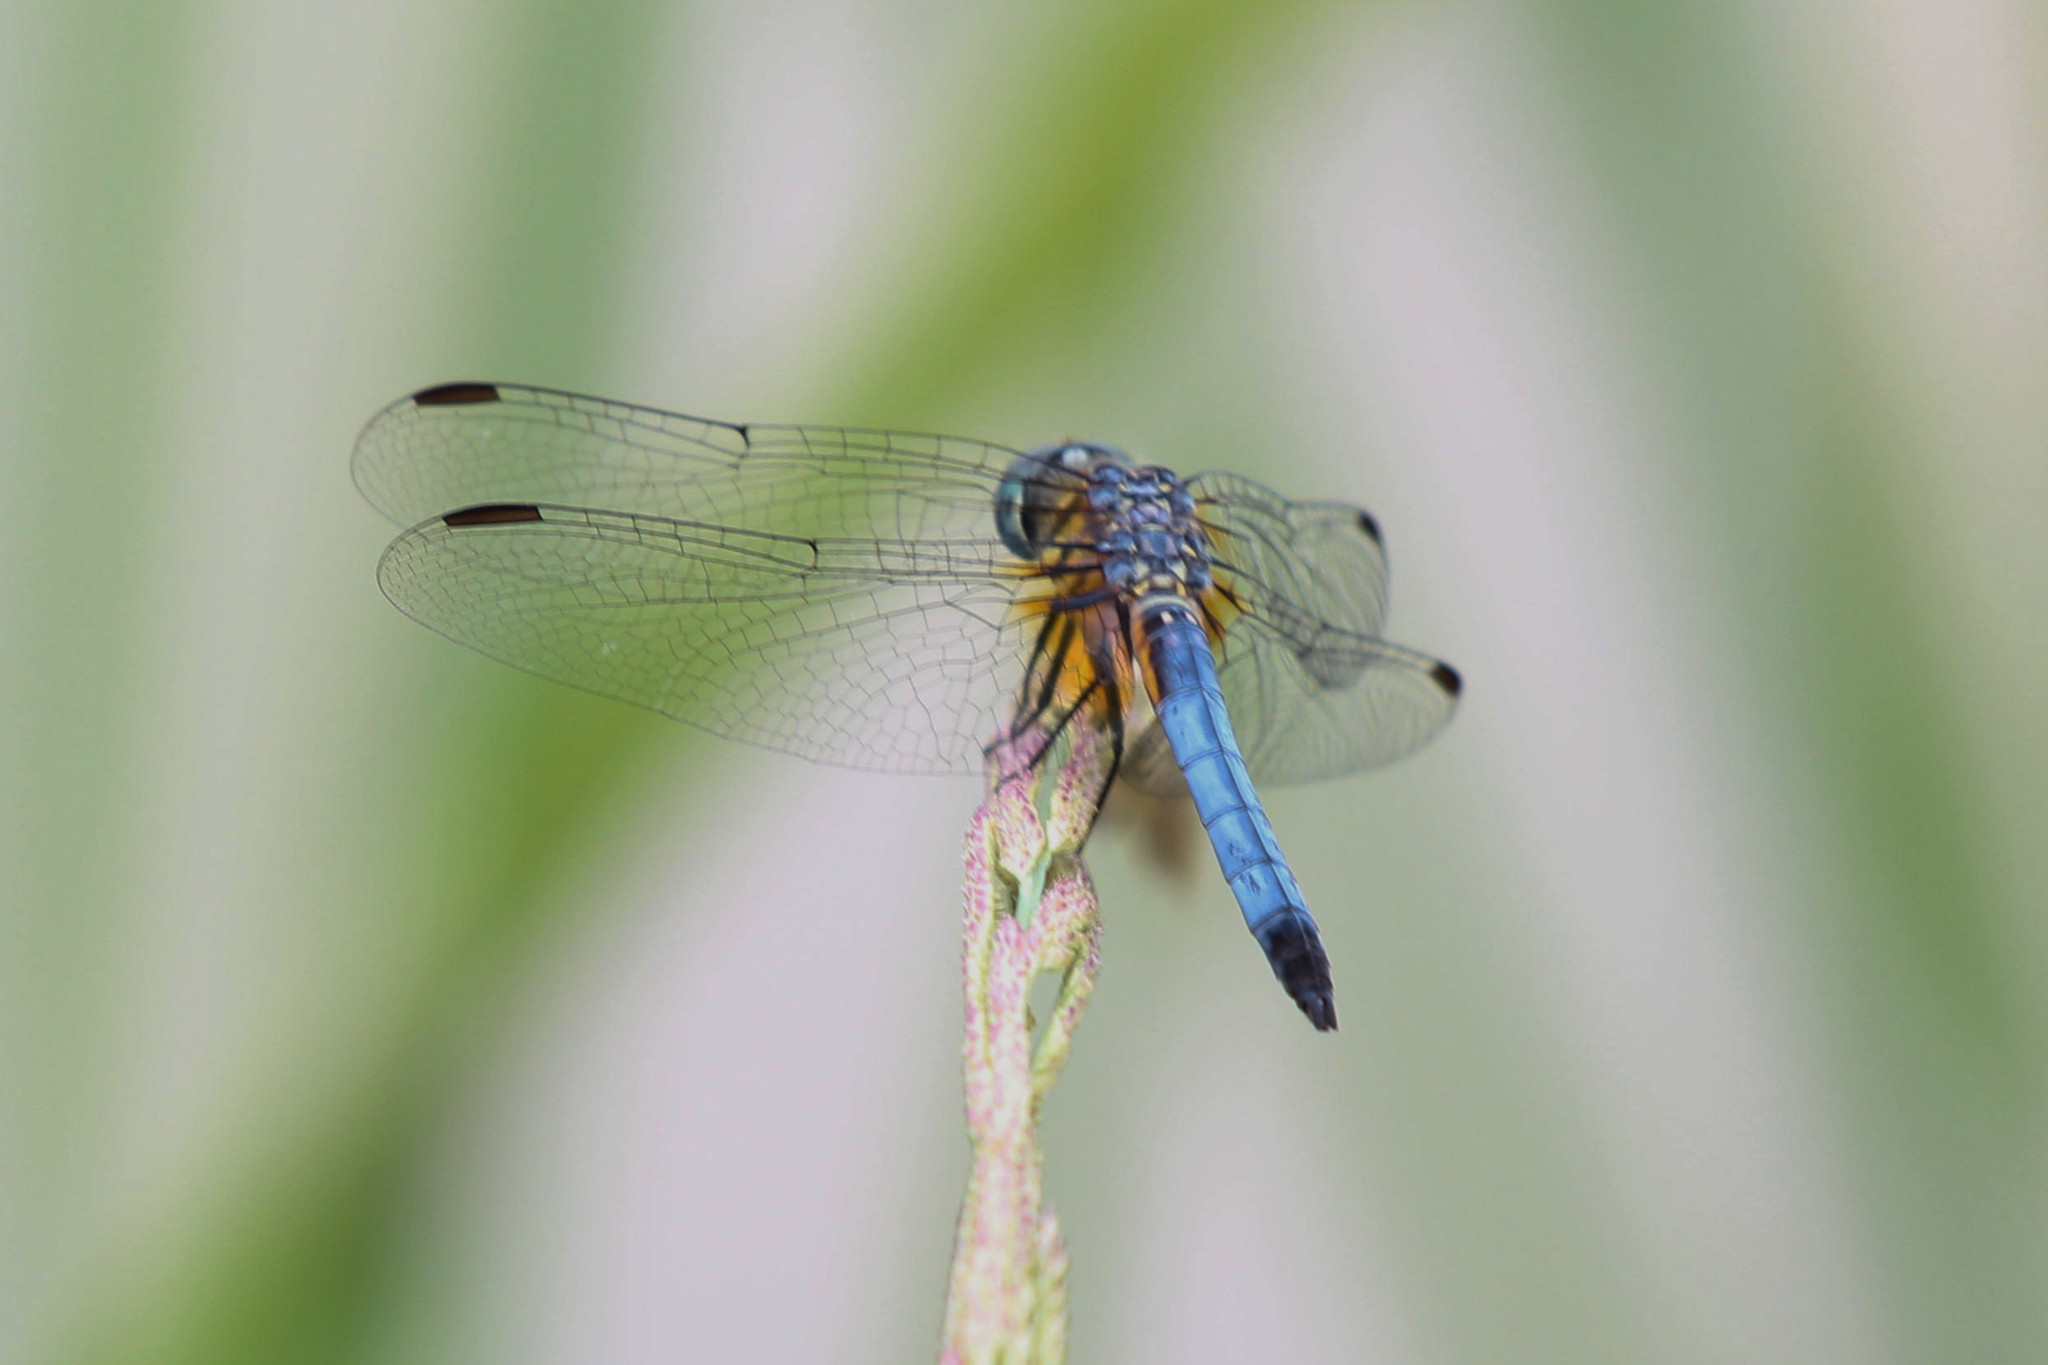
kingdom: Animalia
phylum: Arthropoda
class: Insecta
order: Odonata
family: Libellulidae
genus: Pachydiplax
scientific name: Pachydiplax longipennis
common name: Blue dasher
